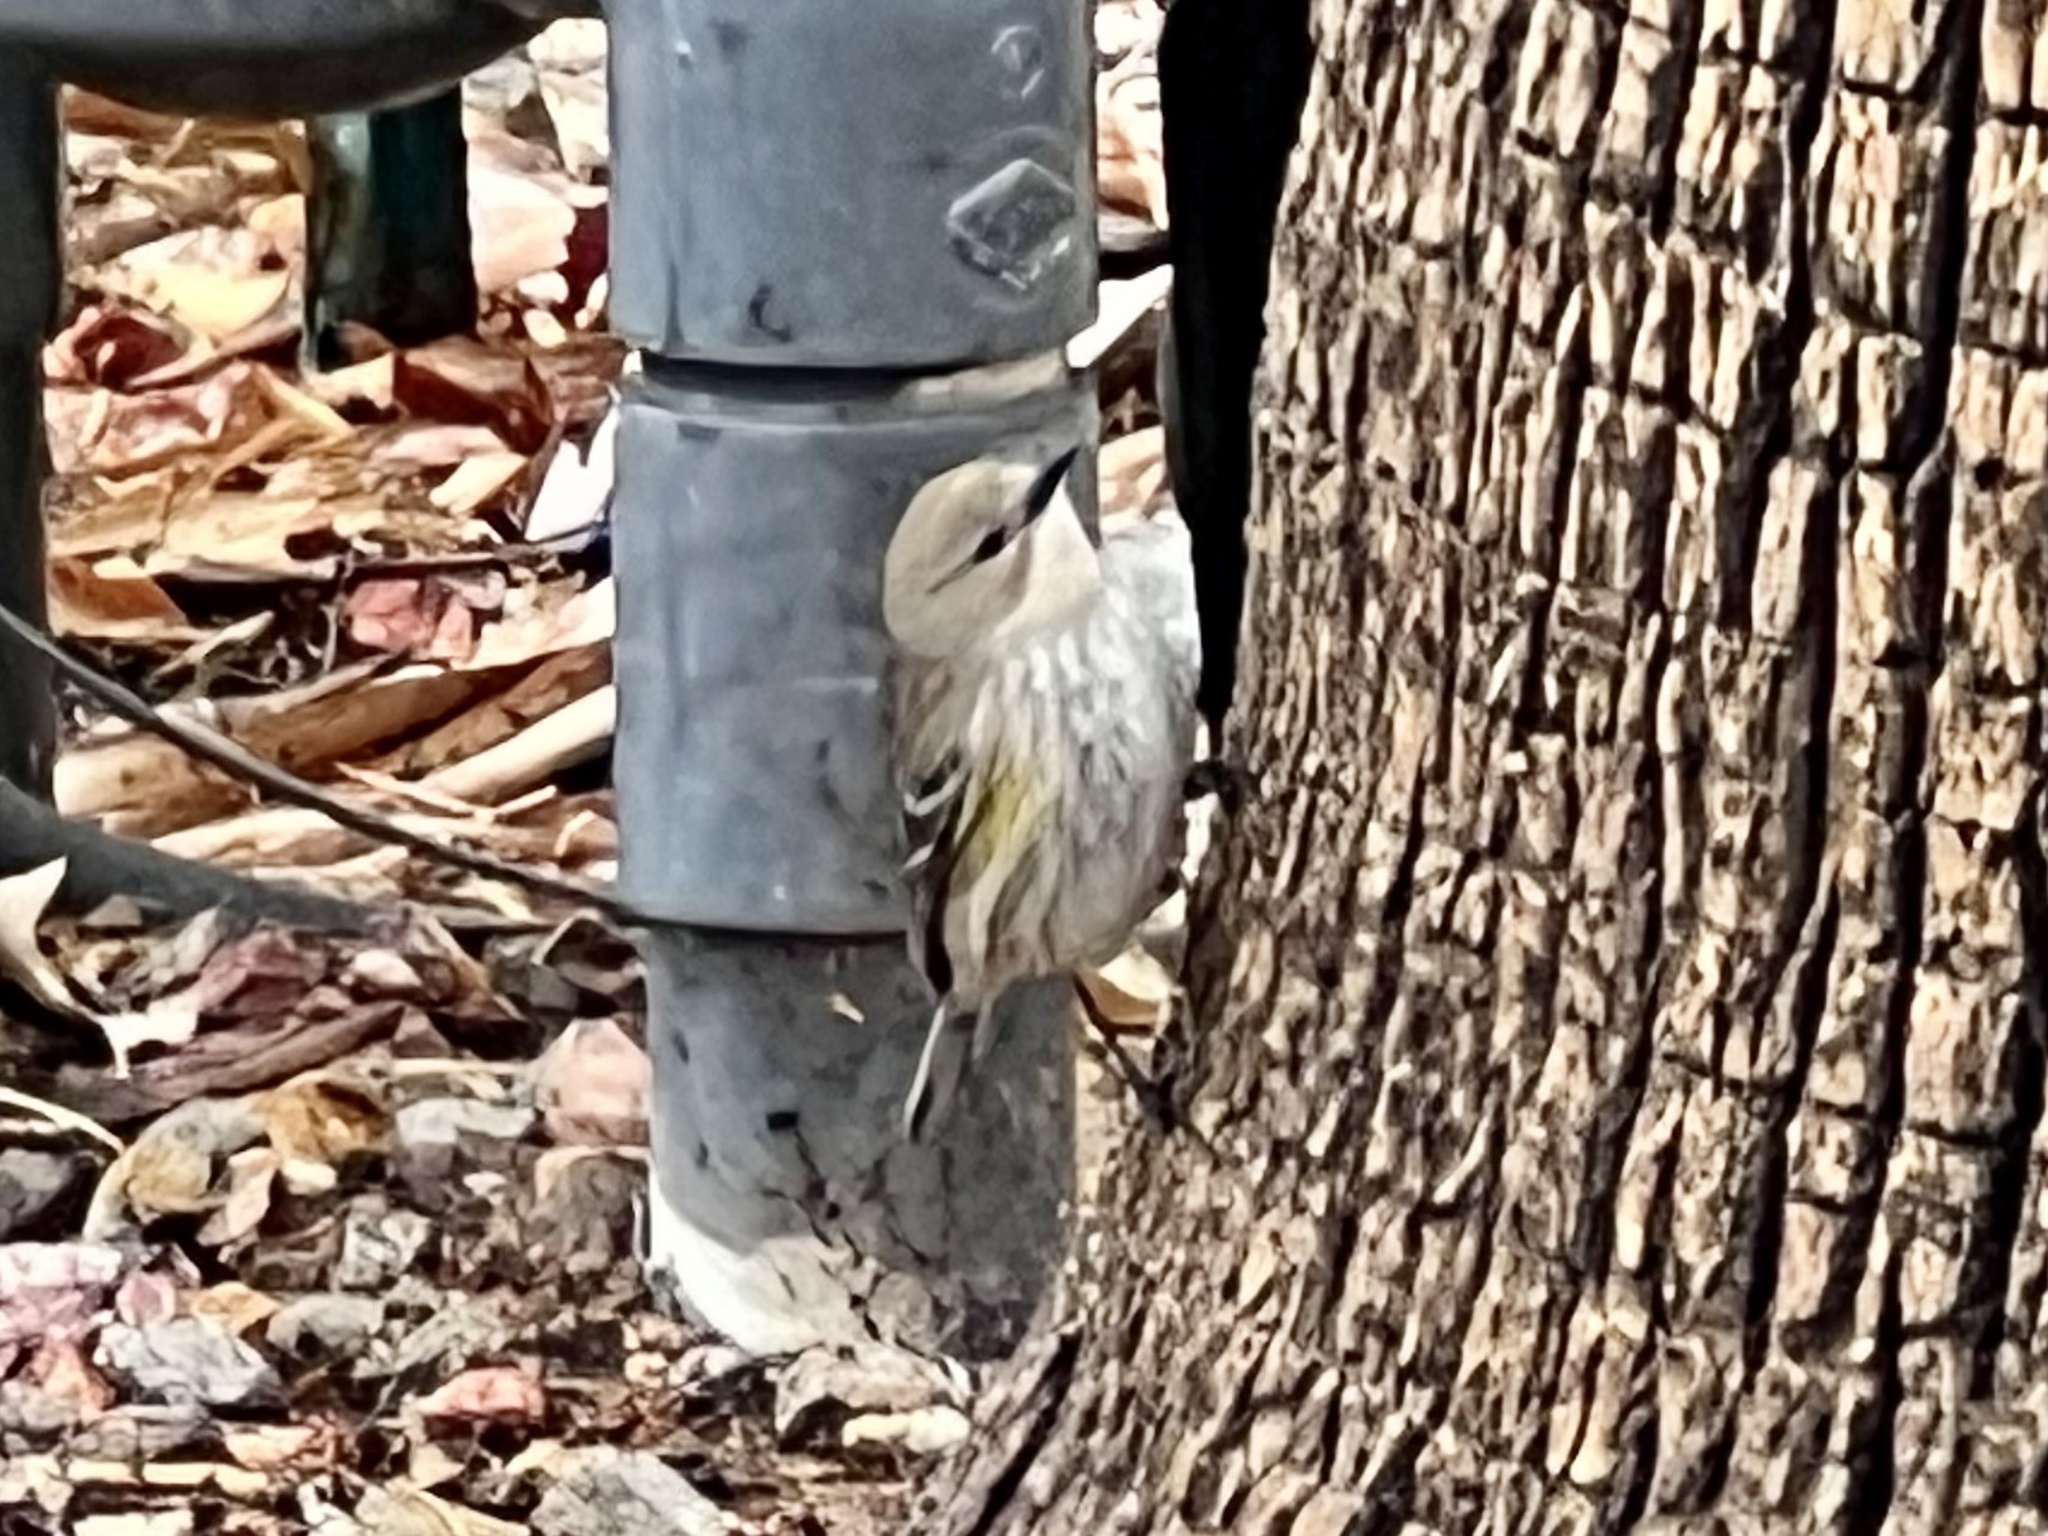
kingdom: Animalia
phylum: Chordata
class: Aves
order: Passeriformes
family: Parulidae
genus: Setophaga
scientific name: Setophaga coronata
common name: Myrtle warbler
